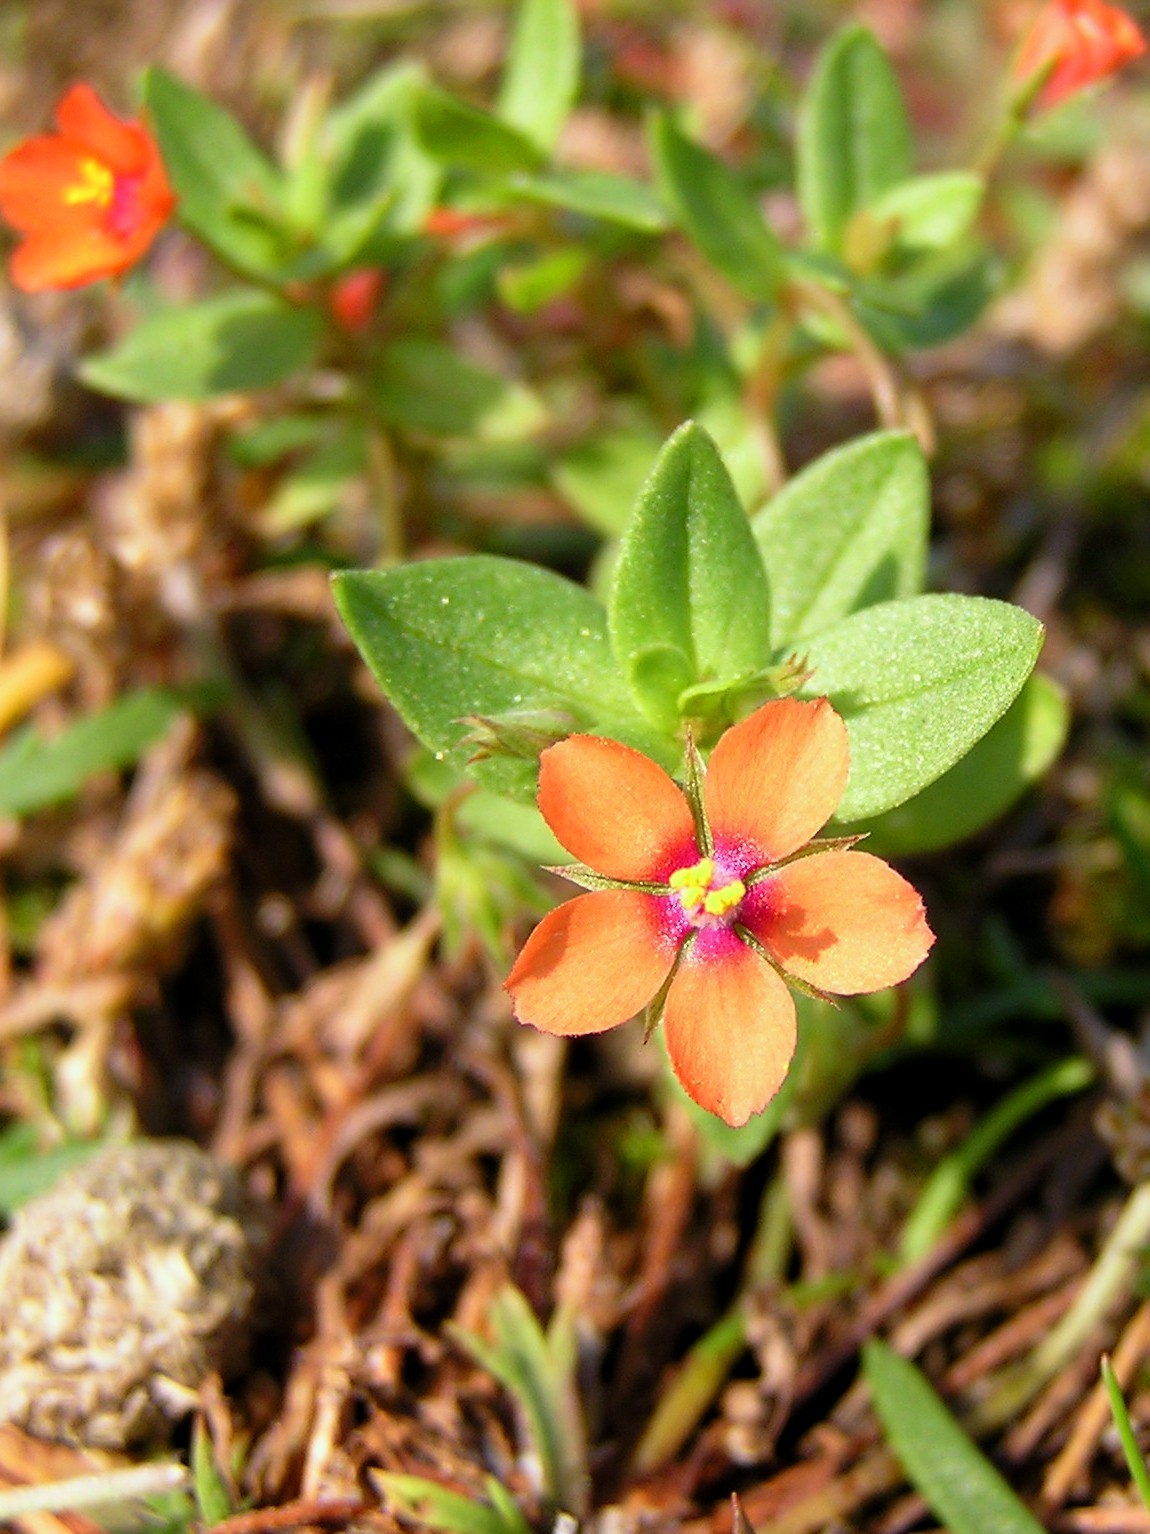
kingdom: Plantae
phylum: Tracheophyta
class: Magnoliopsida
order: Ericales
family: Primulaceae
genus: Lysimachia
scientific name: Lysimachia arvensis
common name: Scarlet pimpernel
